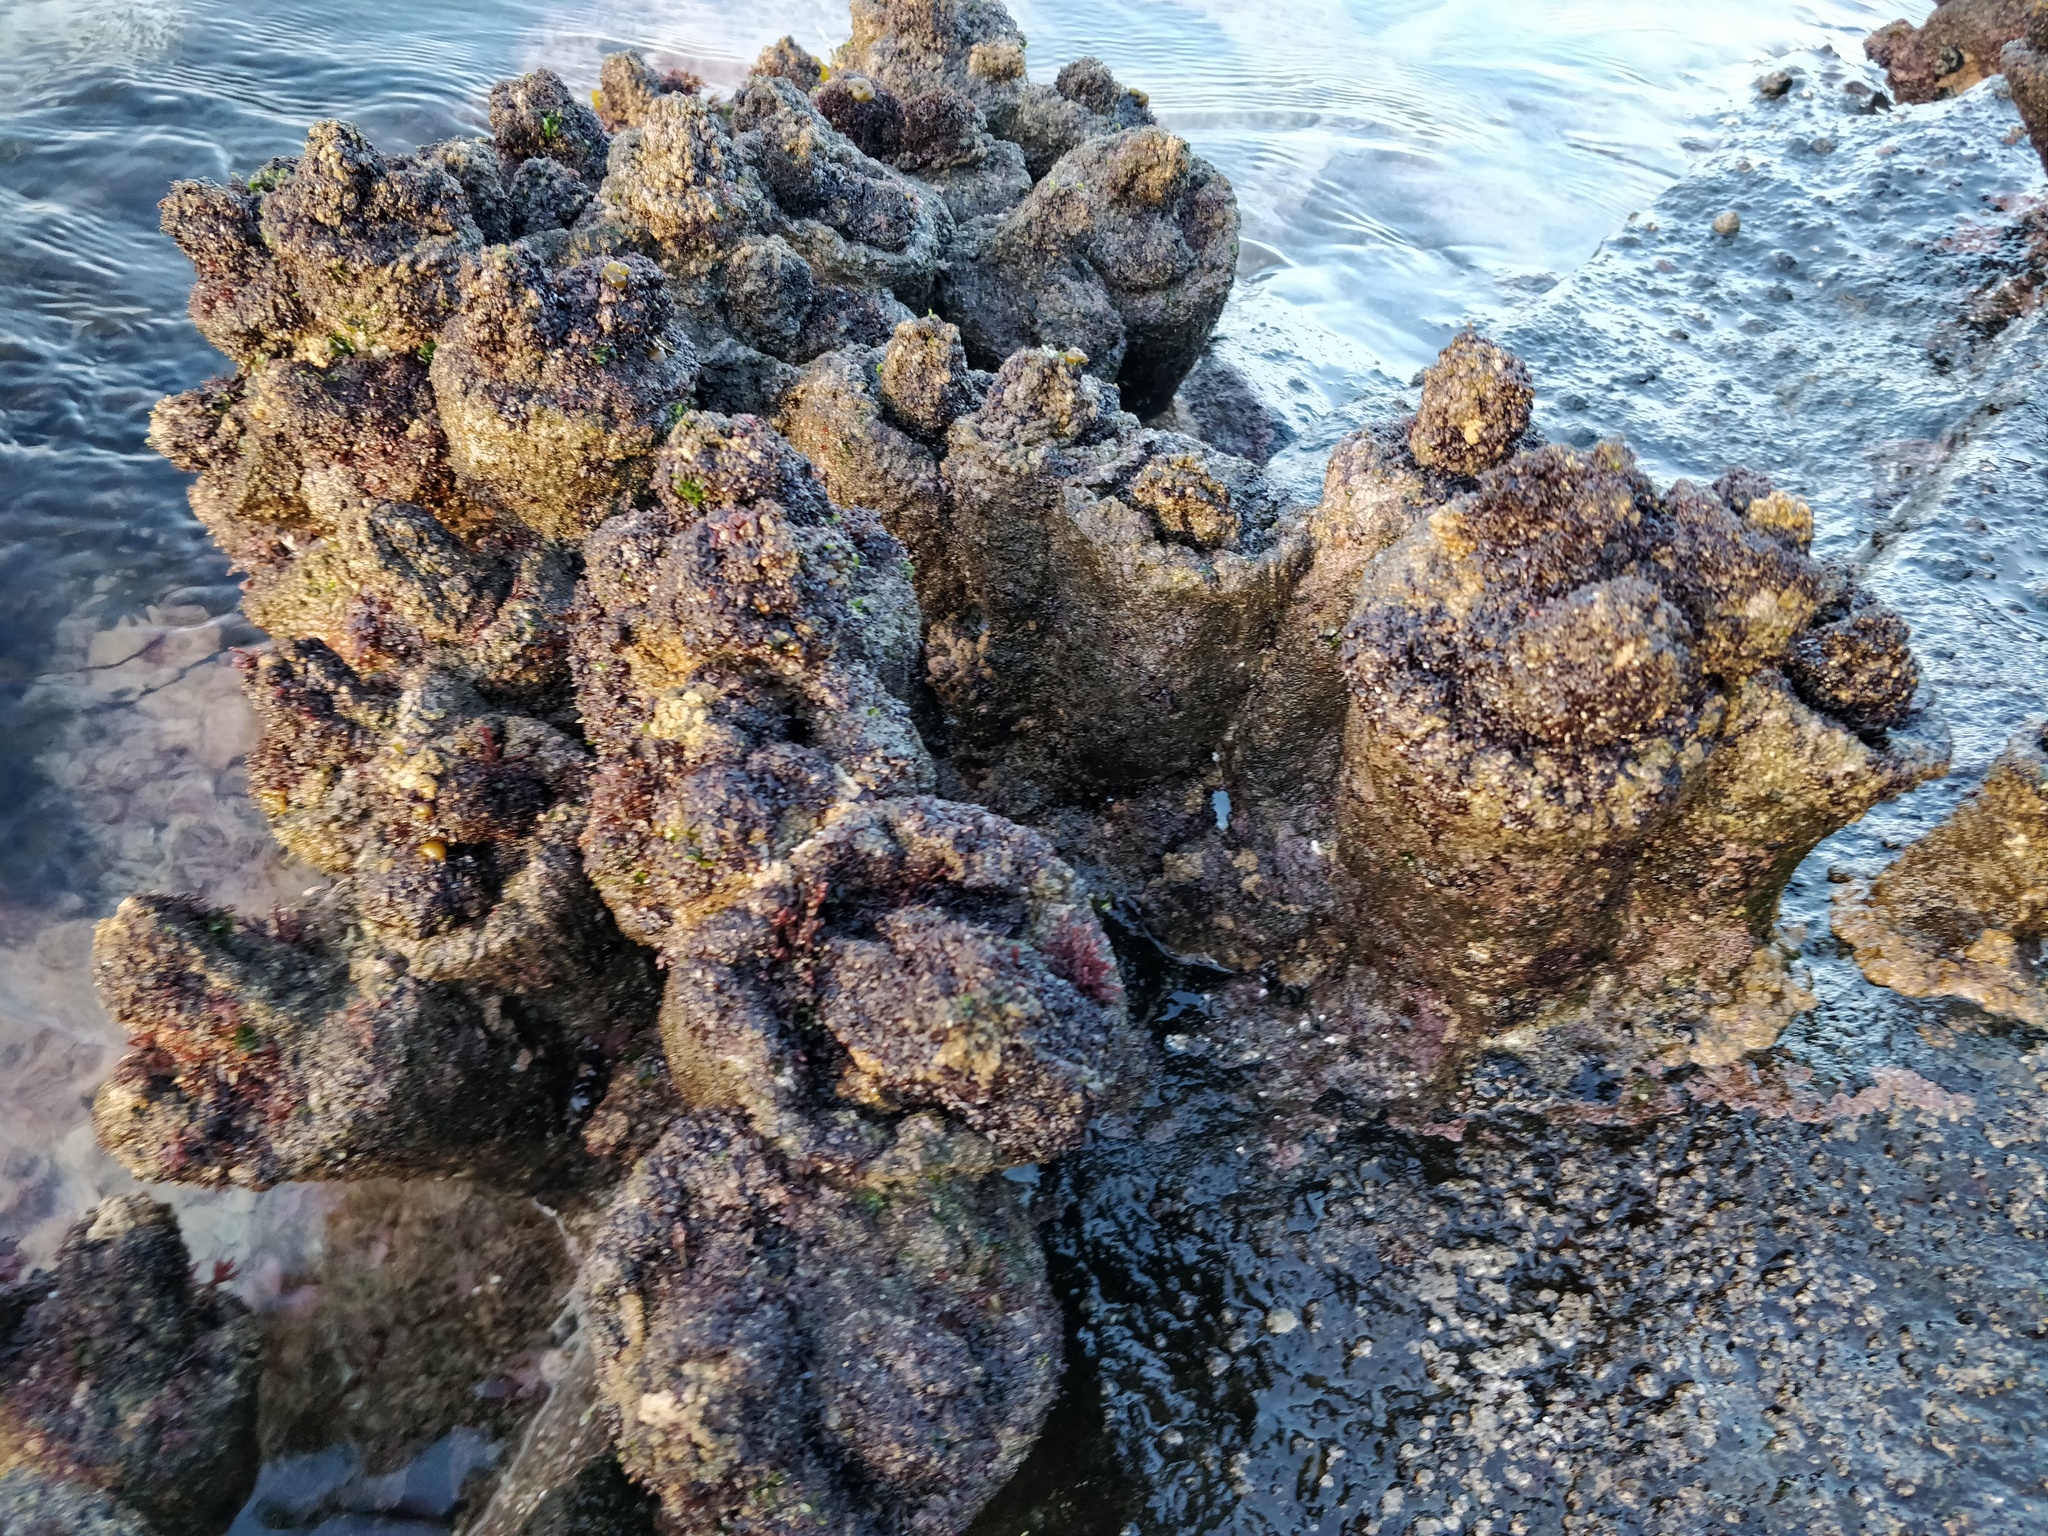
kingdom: Animalia
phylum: Chordata
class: Ascidiacea
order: Stolidobranchia
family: Pyuridae
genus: Pyura
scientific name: Pyura praeputialis
